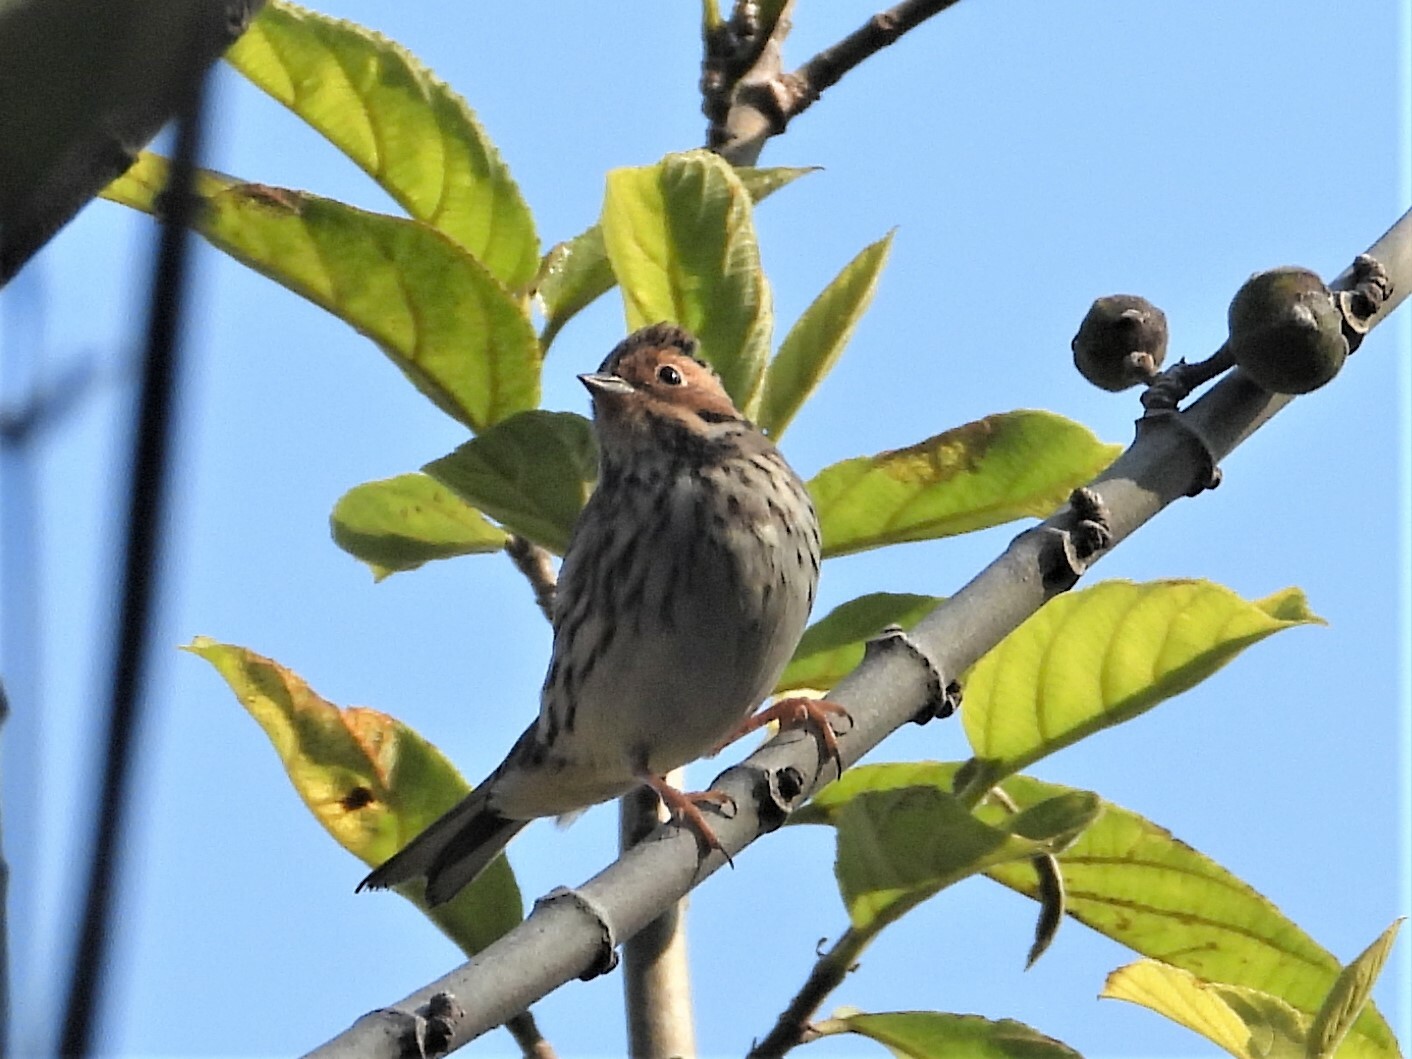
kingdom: Animalia
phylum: Chordata
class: Aves
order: Passeriformes
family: Emberizidae
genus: Emberiza
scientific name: Emberiza pusilla
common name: Little bunting
